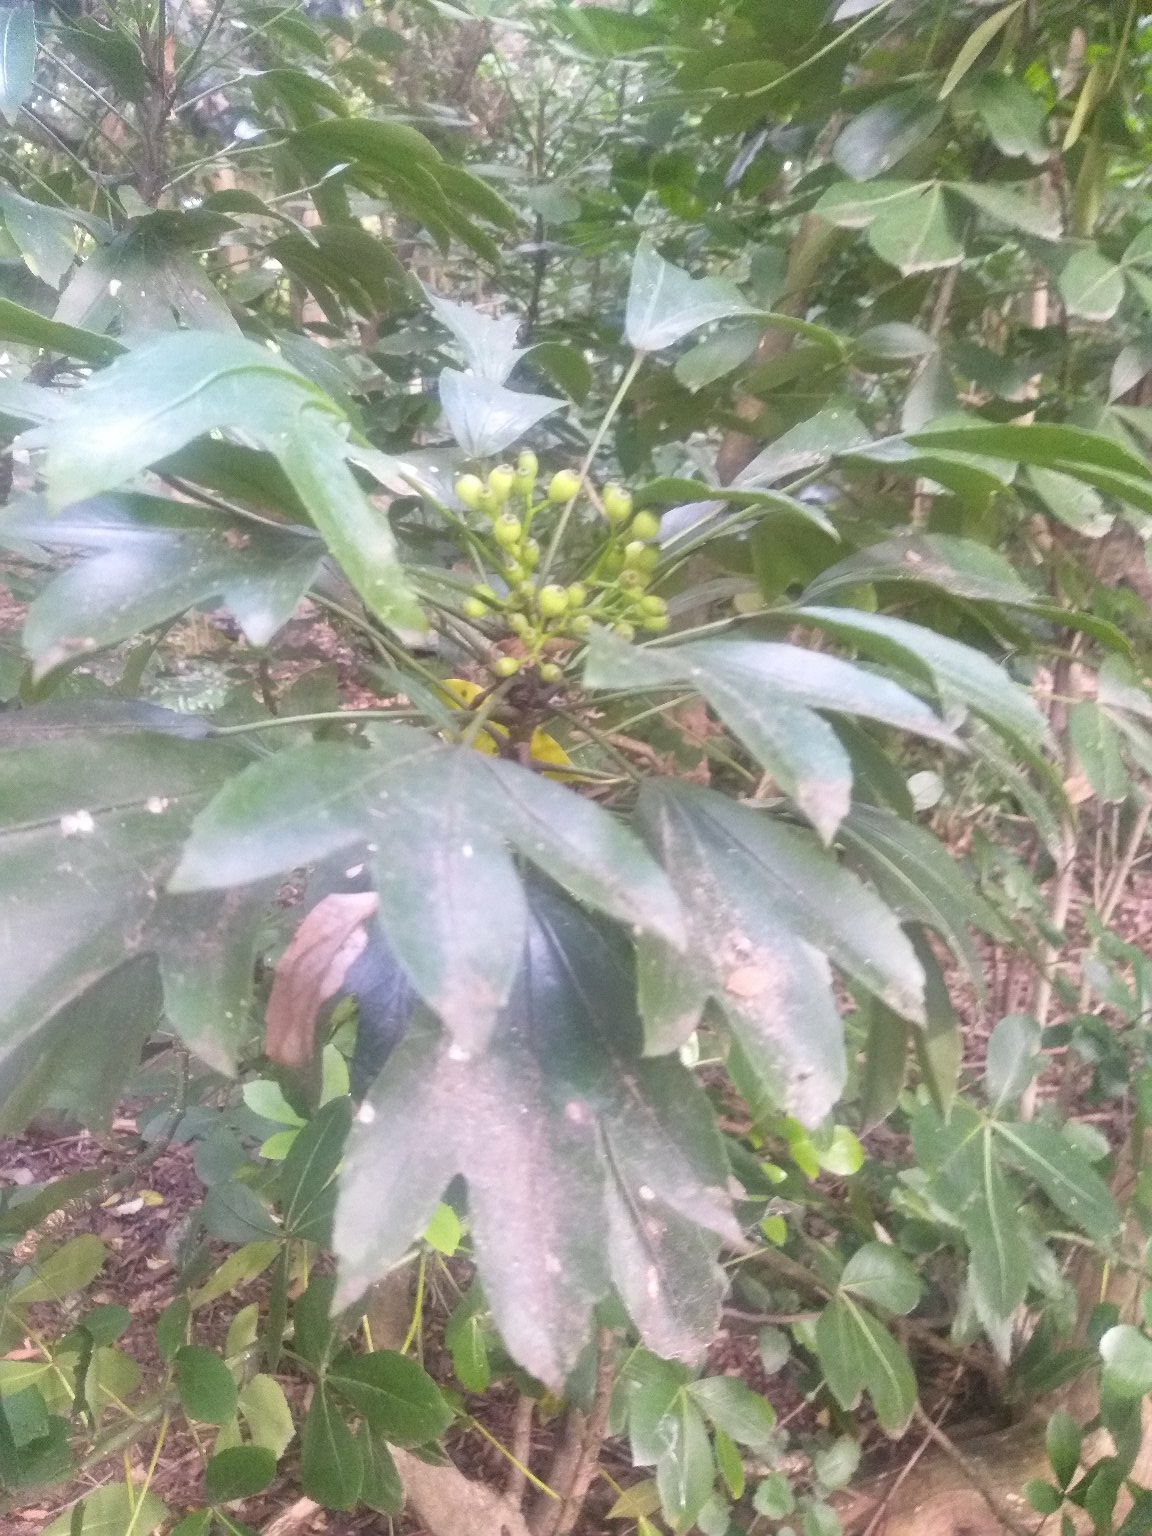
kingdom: Plantae
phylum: Tracheophyta
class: Magnoliopsida
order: Apiales
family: Araliaceae
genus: Pseudopanax
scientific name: Pseudopanax
